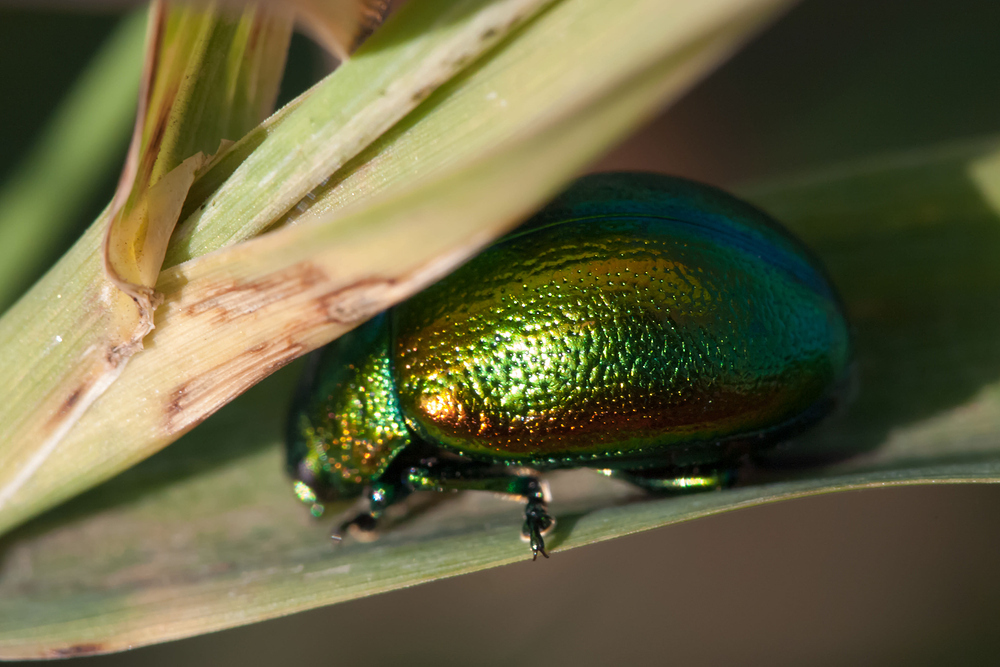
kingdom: Animalia
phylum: Arthropoda
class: Insecta
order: Coleoptera
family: Chrysomelidae
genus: Chrysolina
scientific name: Chrysolina graminis
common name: Tansey beetle
